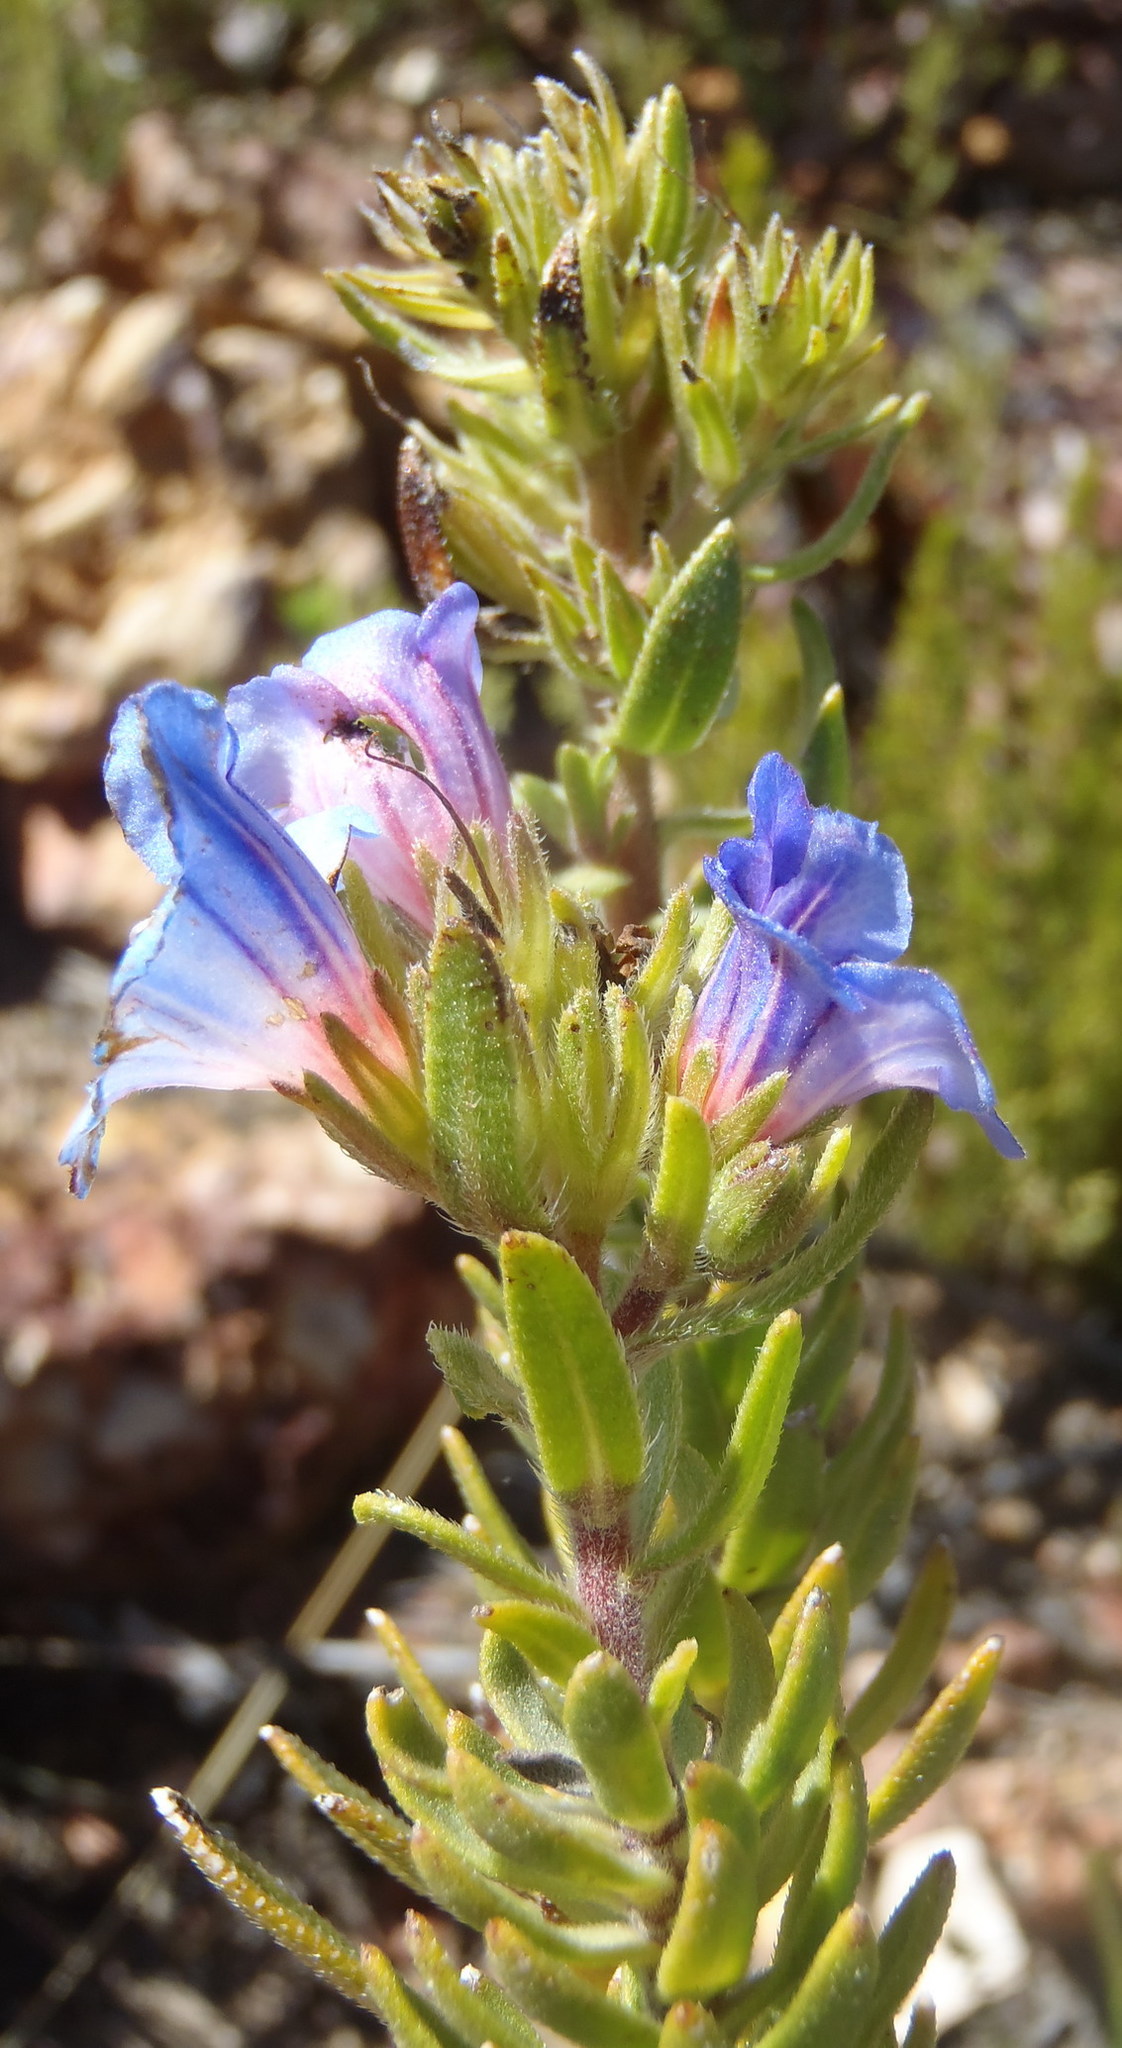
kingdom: Plantae
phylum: Tracheophyta
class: Magnoliopsida
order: Boraginales
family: Boraginaceae
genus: Lobostemon
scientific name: Lobostemon fruticosus
